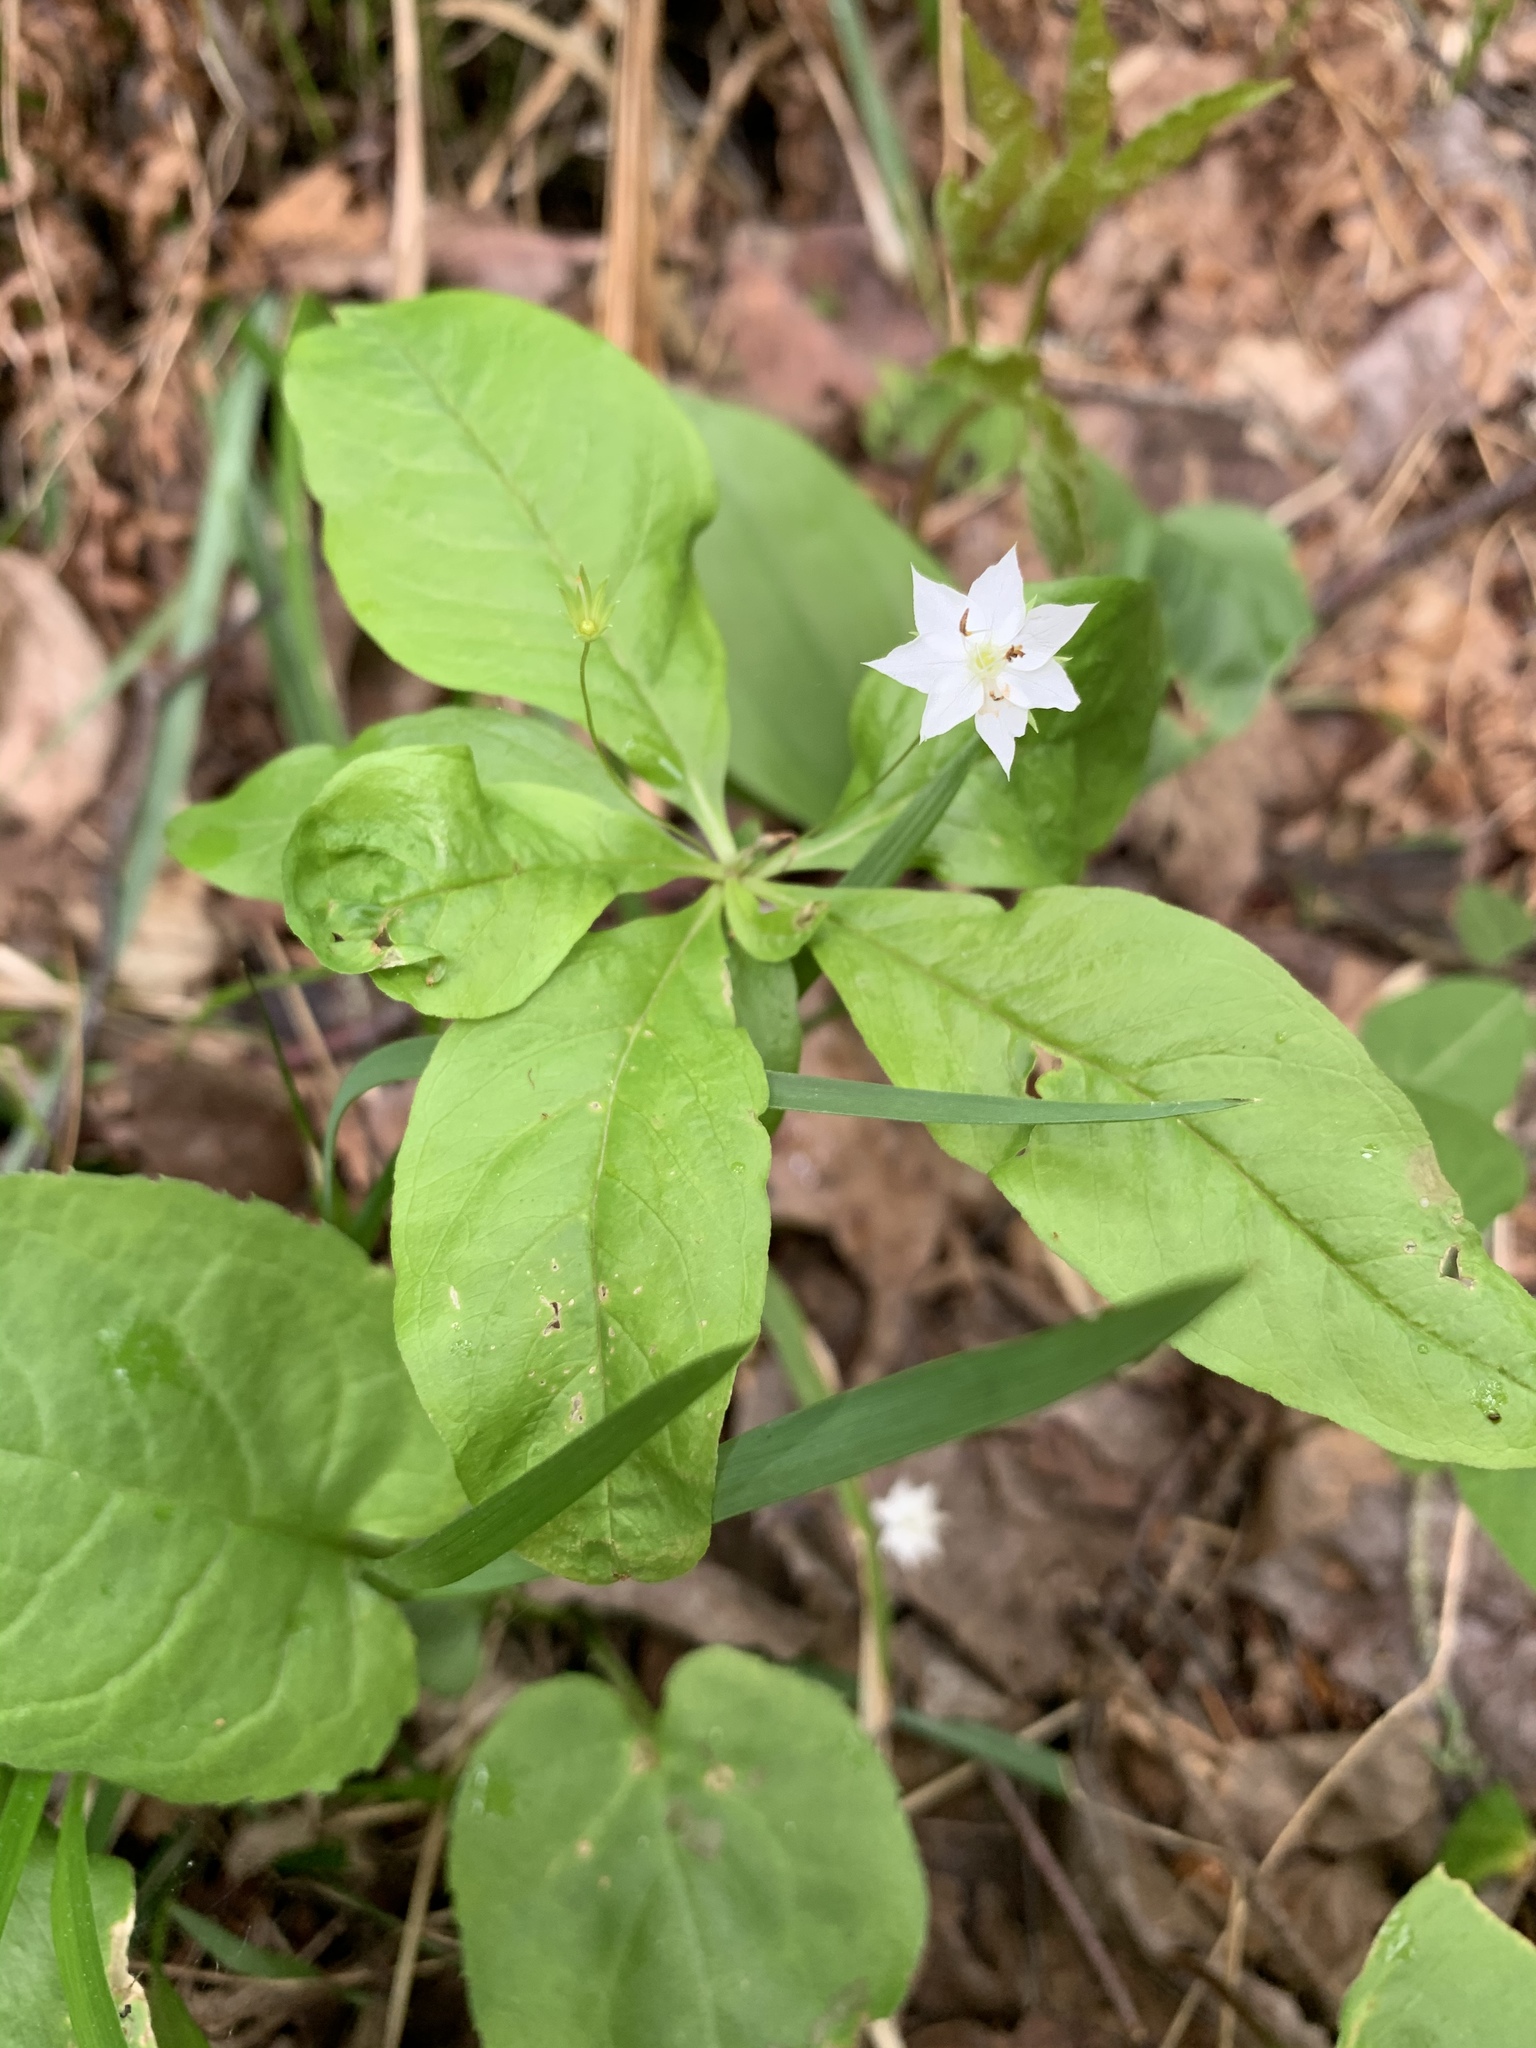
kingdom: Plantae
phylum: Tracheophyta
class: Magnoliopsida
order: Ericales
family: Primulaceae
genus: Lysimachia
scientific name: Lysimachia borealis
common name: American starflower
